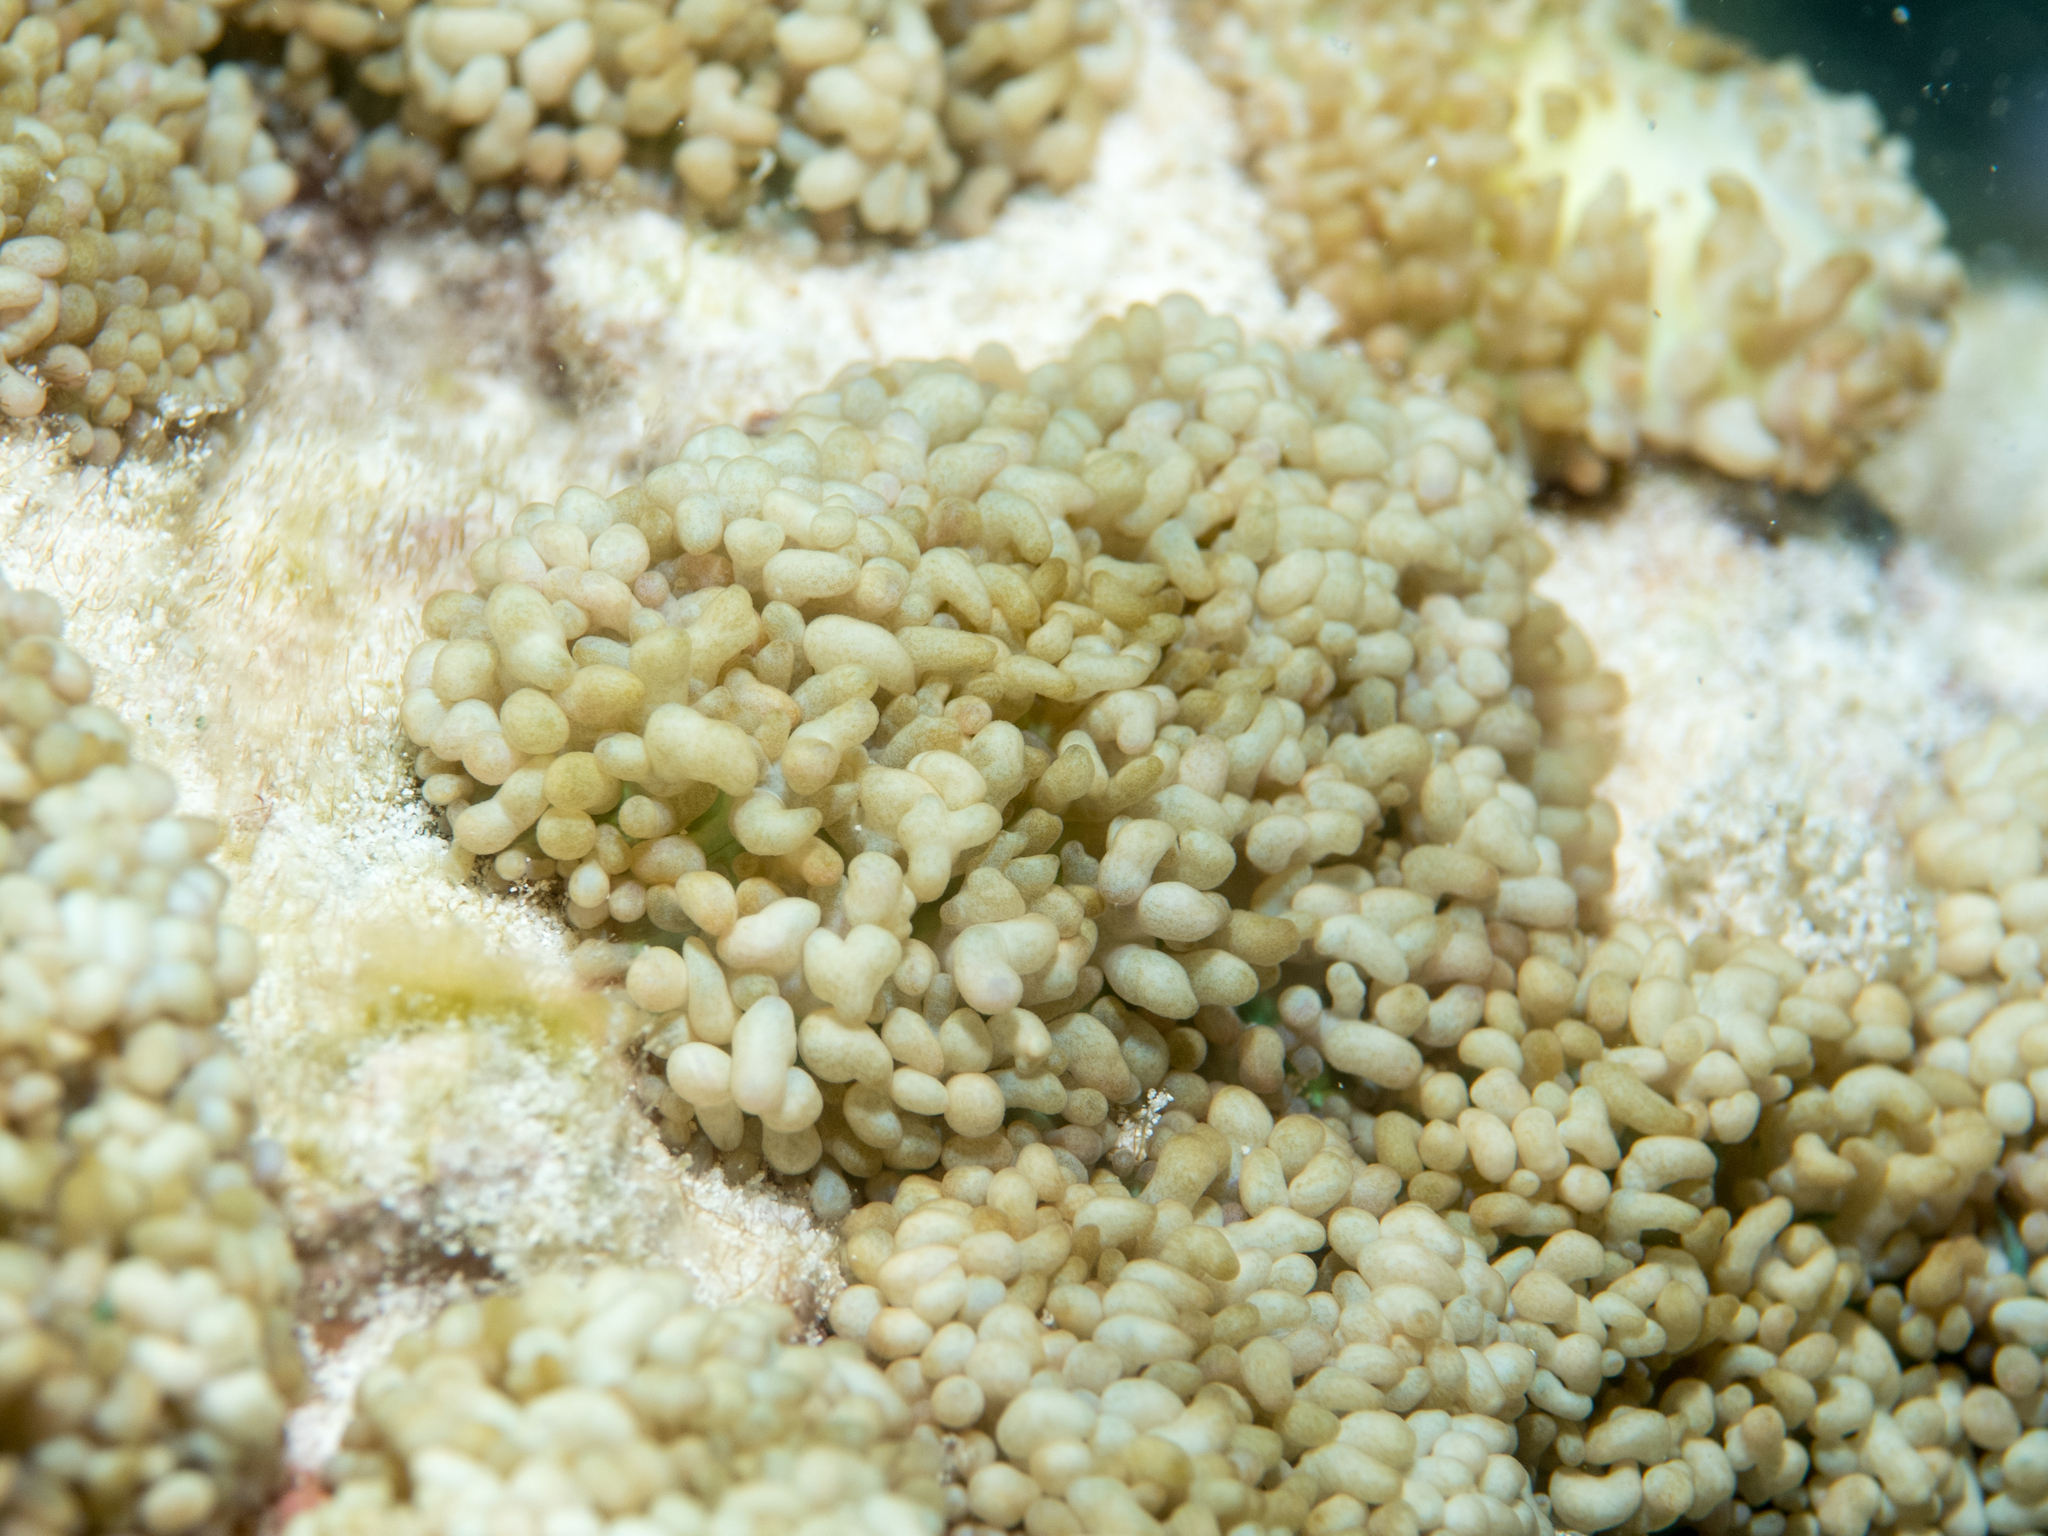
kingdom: Animalia
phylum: Cnidaria
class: Anthozoa
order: Corallimorpharia
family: Discosomidae
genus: Rhodactis
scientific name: Rhodactis rhodostoma
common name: Red-mouth mushroom anemone
